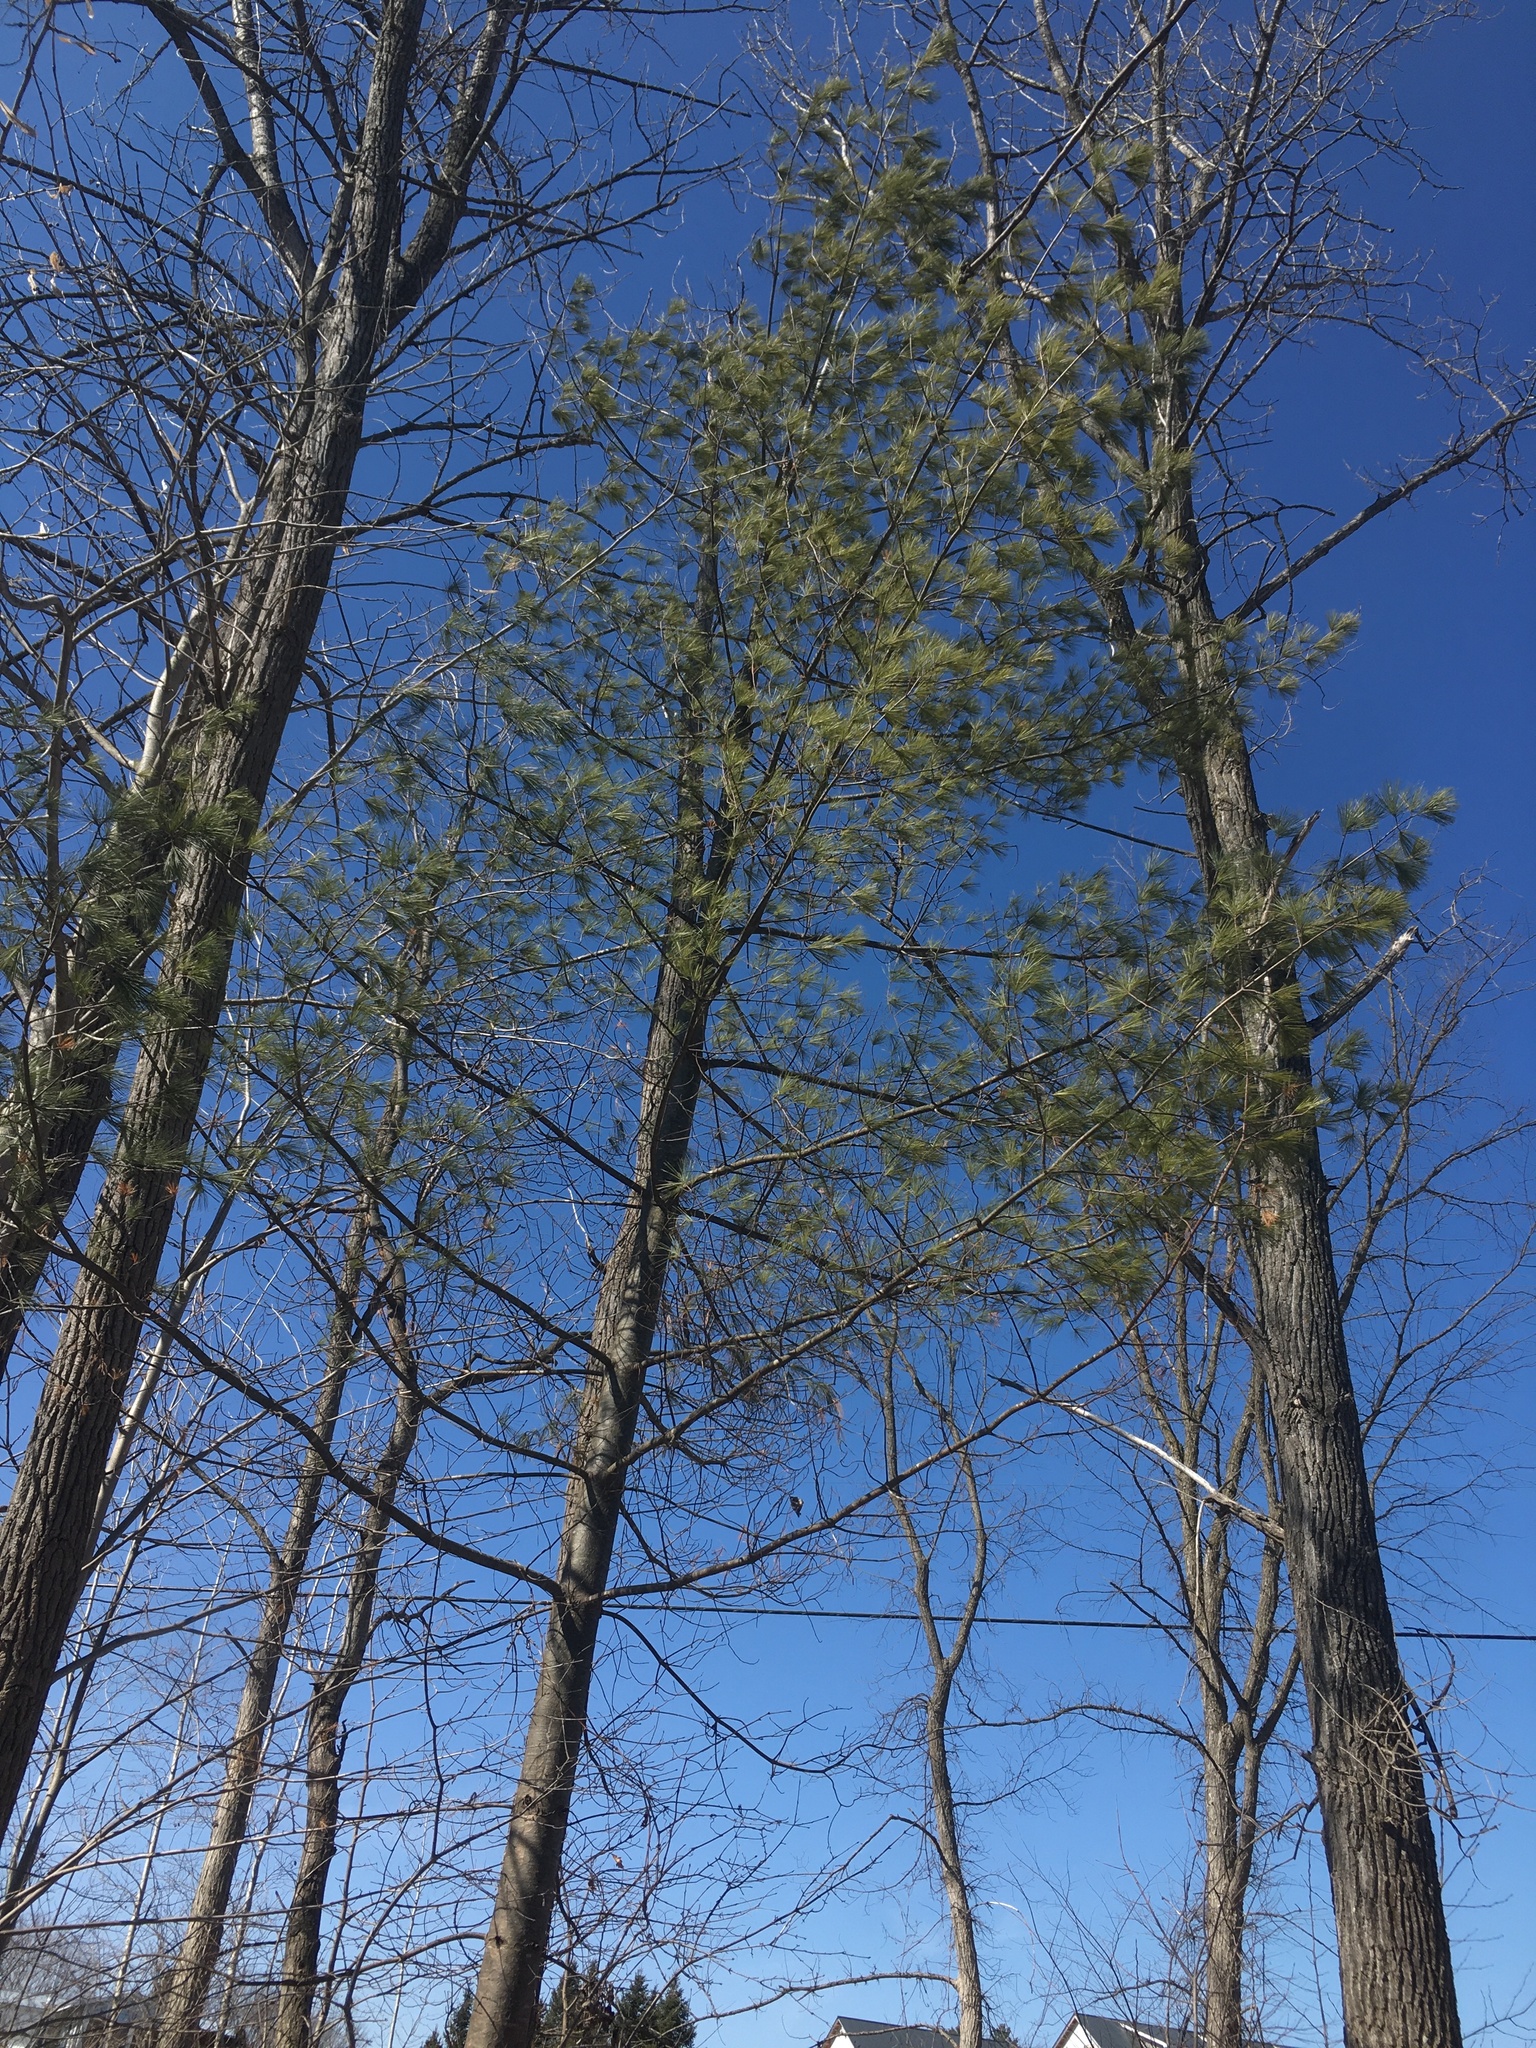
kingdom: Plantae
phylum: Tracheophyta
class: Pinopsida
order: Pinales
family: Pinaceae
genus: Pinus
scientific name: Pinus strobus
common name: Weymouth pine
